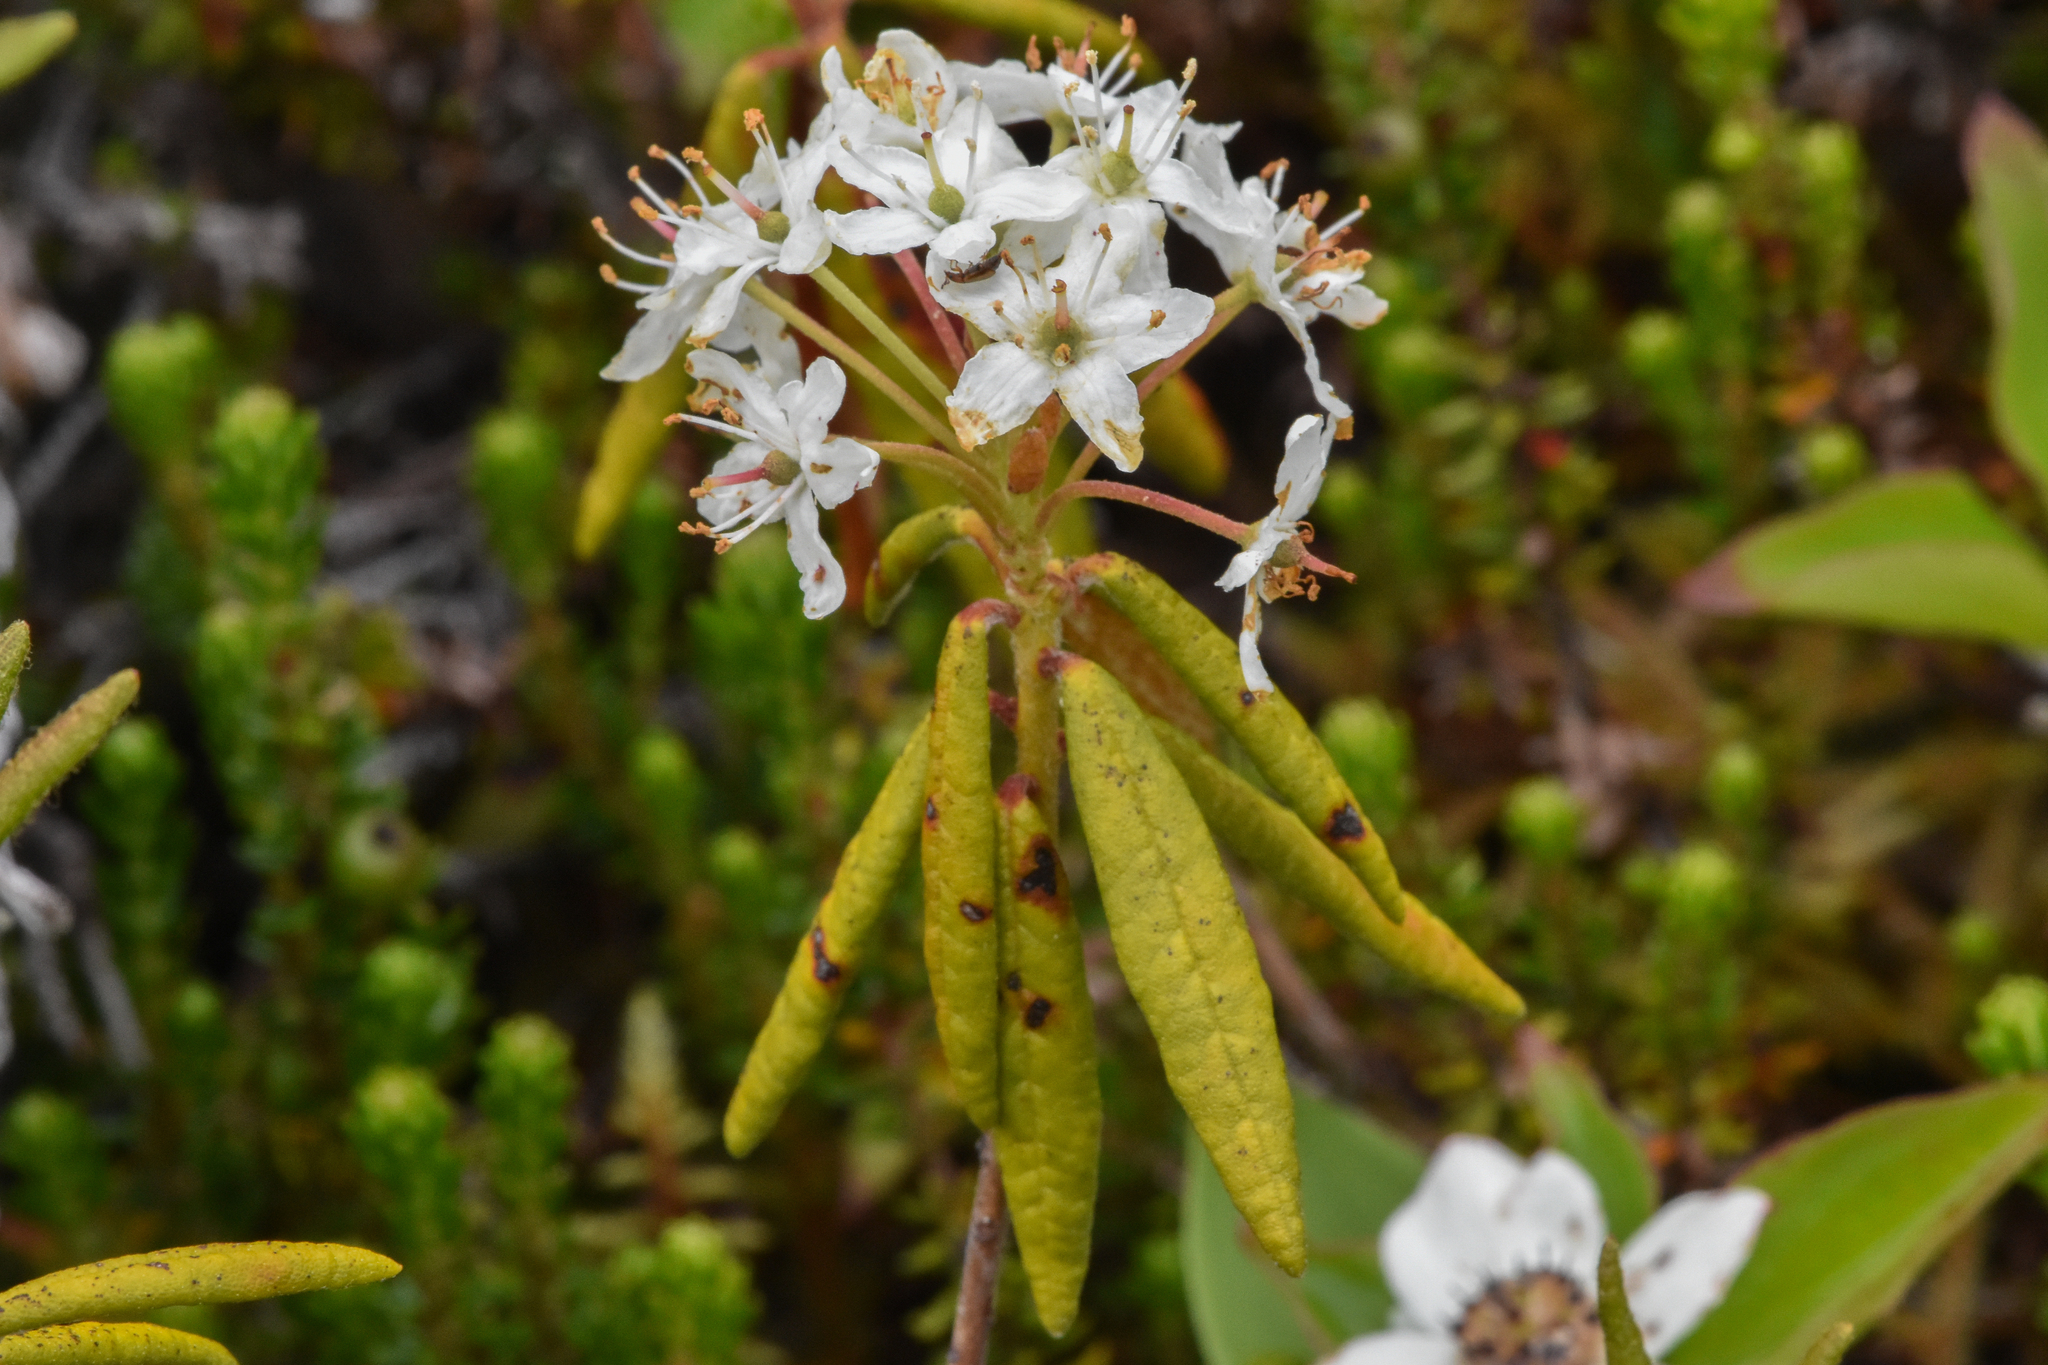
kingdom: Plantae
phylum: Tracheophyta
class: Magnoliopsida
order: Ericales
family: Ericaceae
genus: Rhododendron
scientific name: Rhododendron groenlandicum
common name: Bog labrador tea
